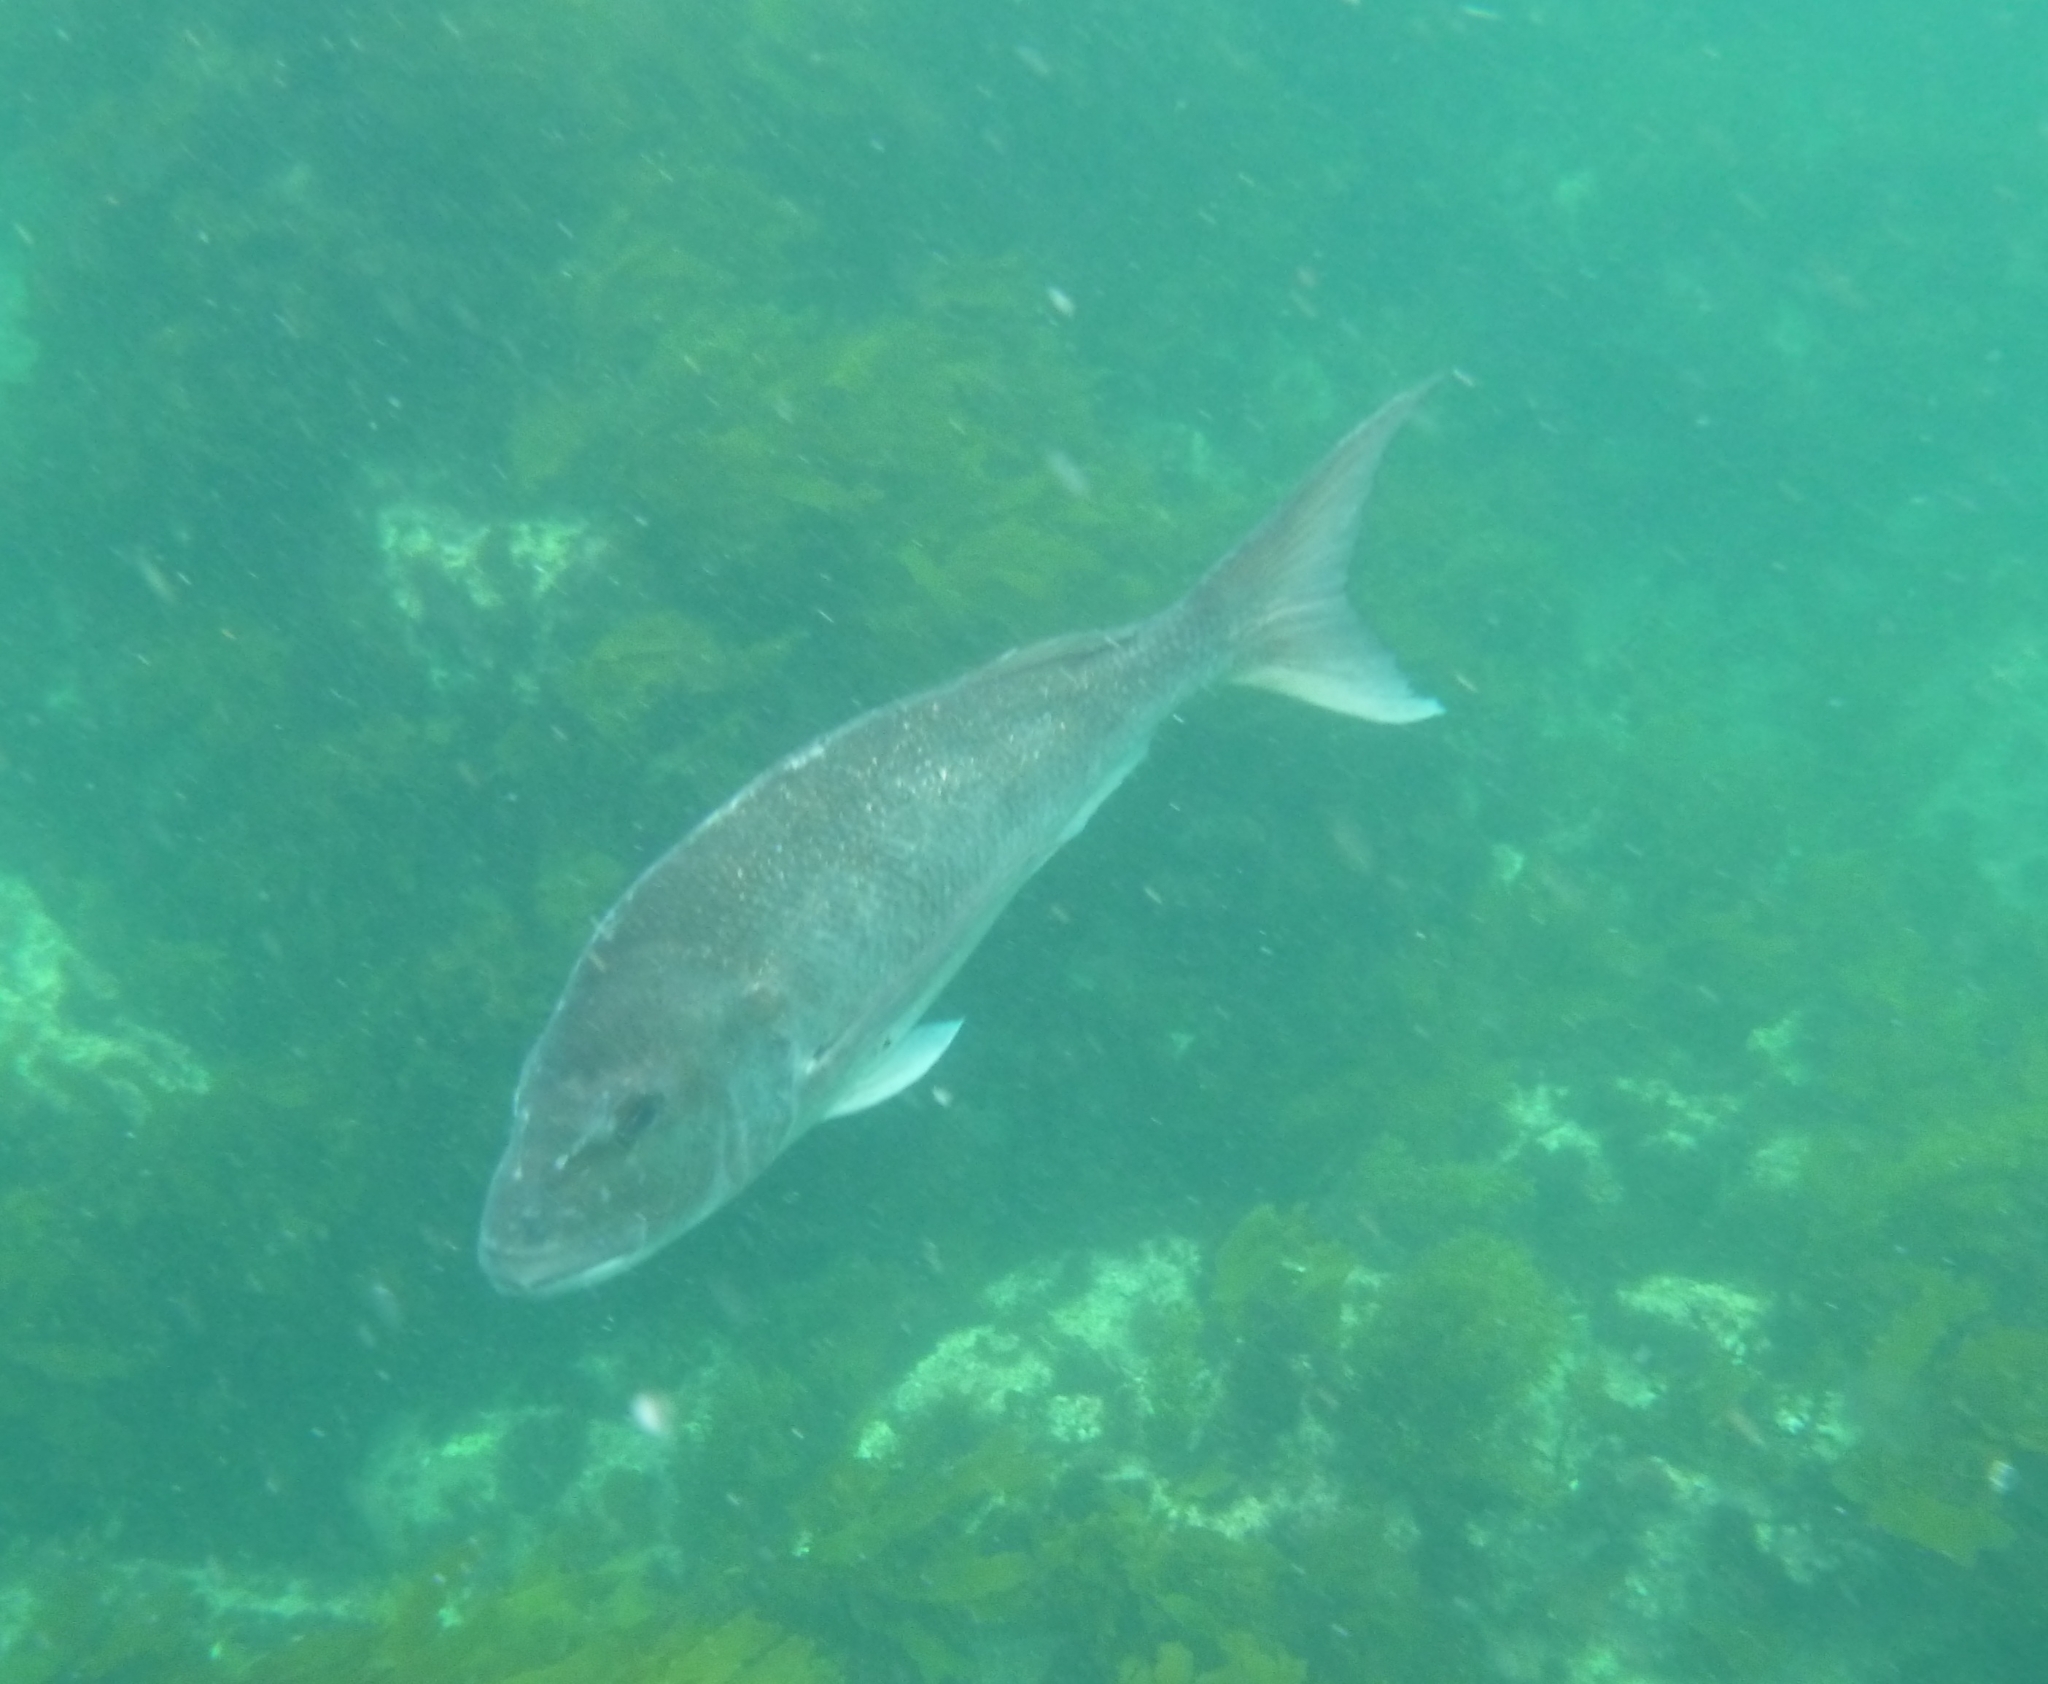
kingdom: Animalia
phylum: Chordata
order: Perciformes
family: Sparidae
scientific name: Sparidae
